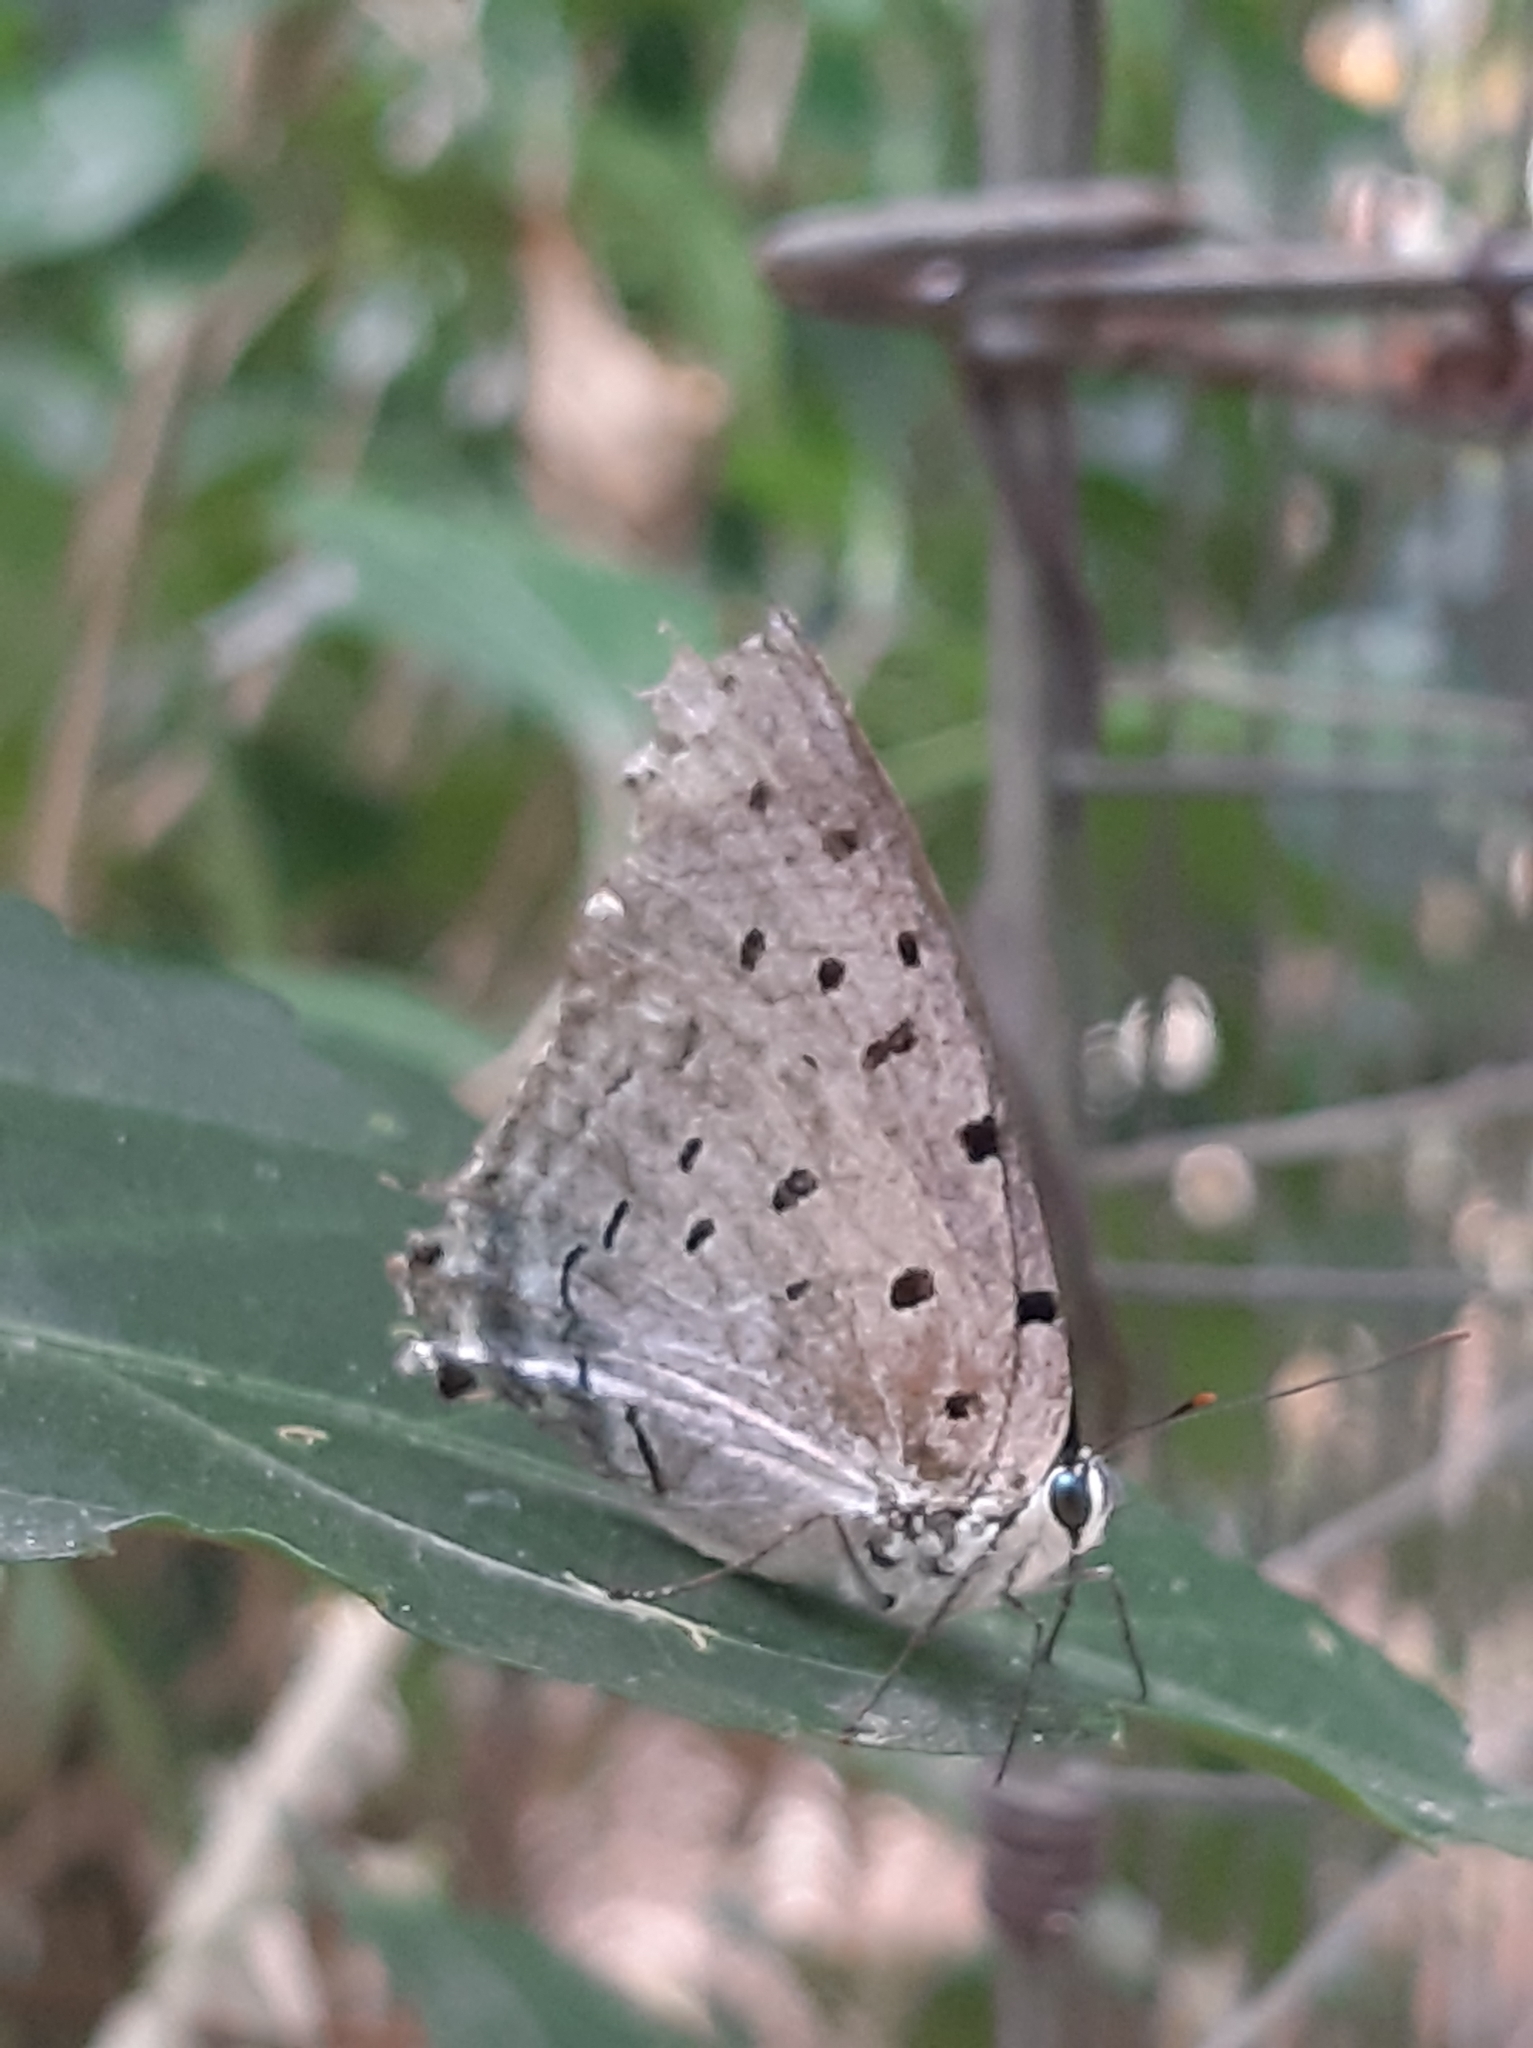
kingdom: Animalia
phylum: Arthropoda
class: Insecta
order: Lepidoptera
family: Lycaenidae
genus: Pseudolycaena
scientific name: Pseudolycaena damo
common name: Sky-blue hairstreak
